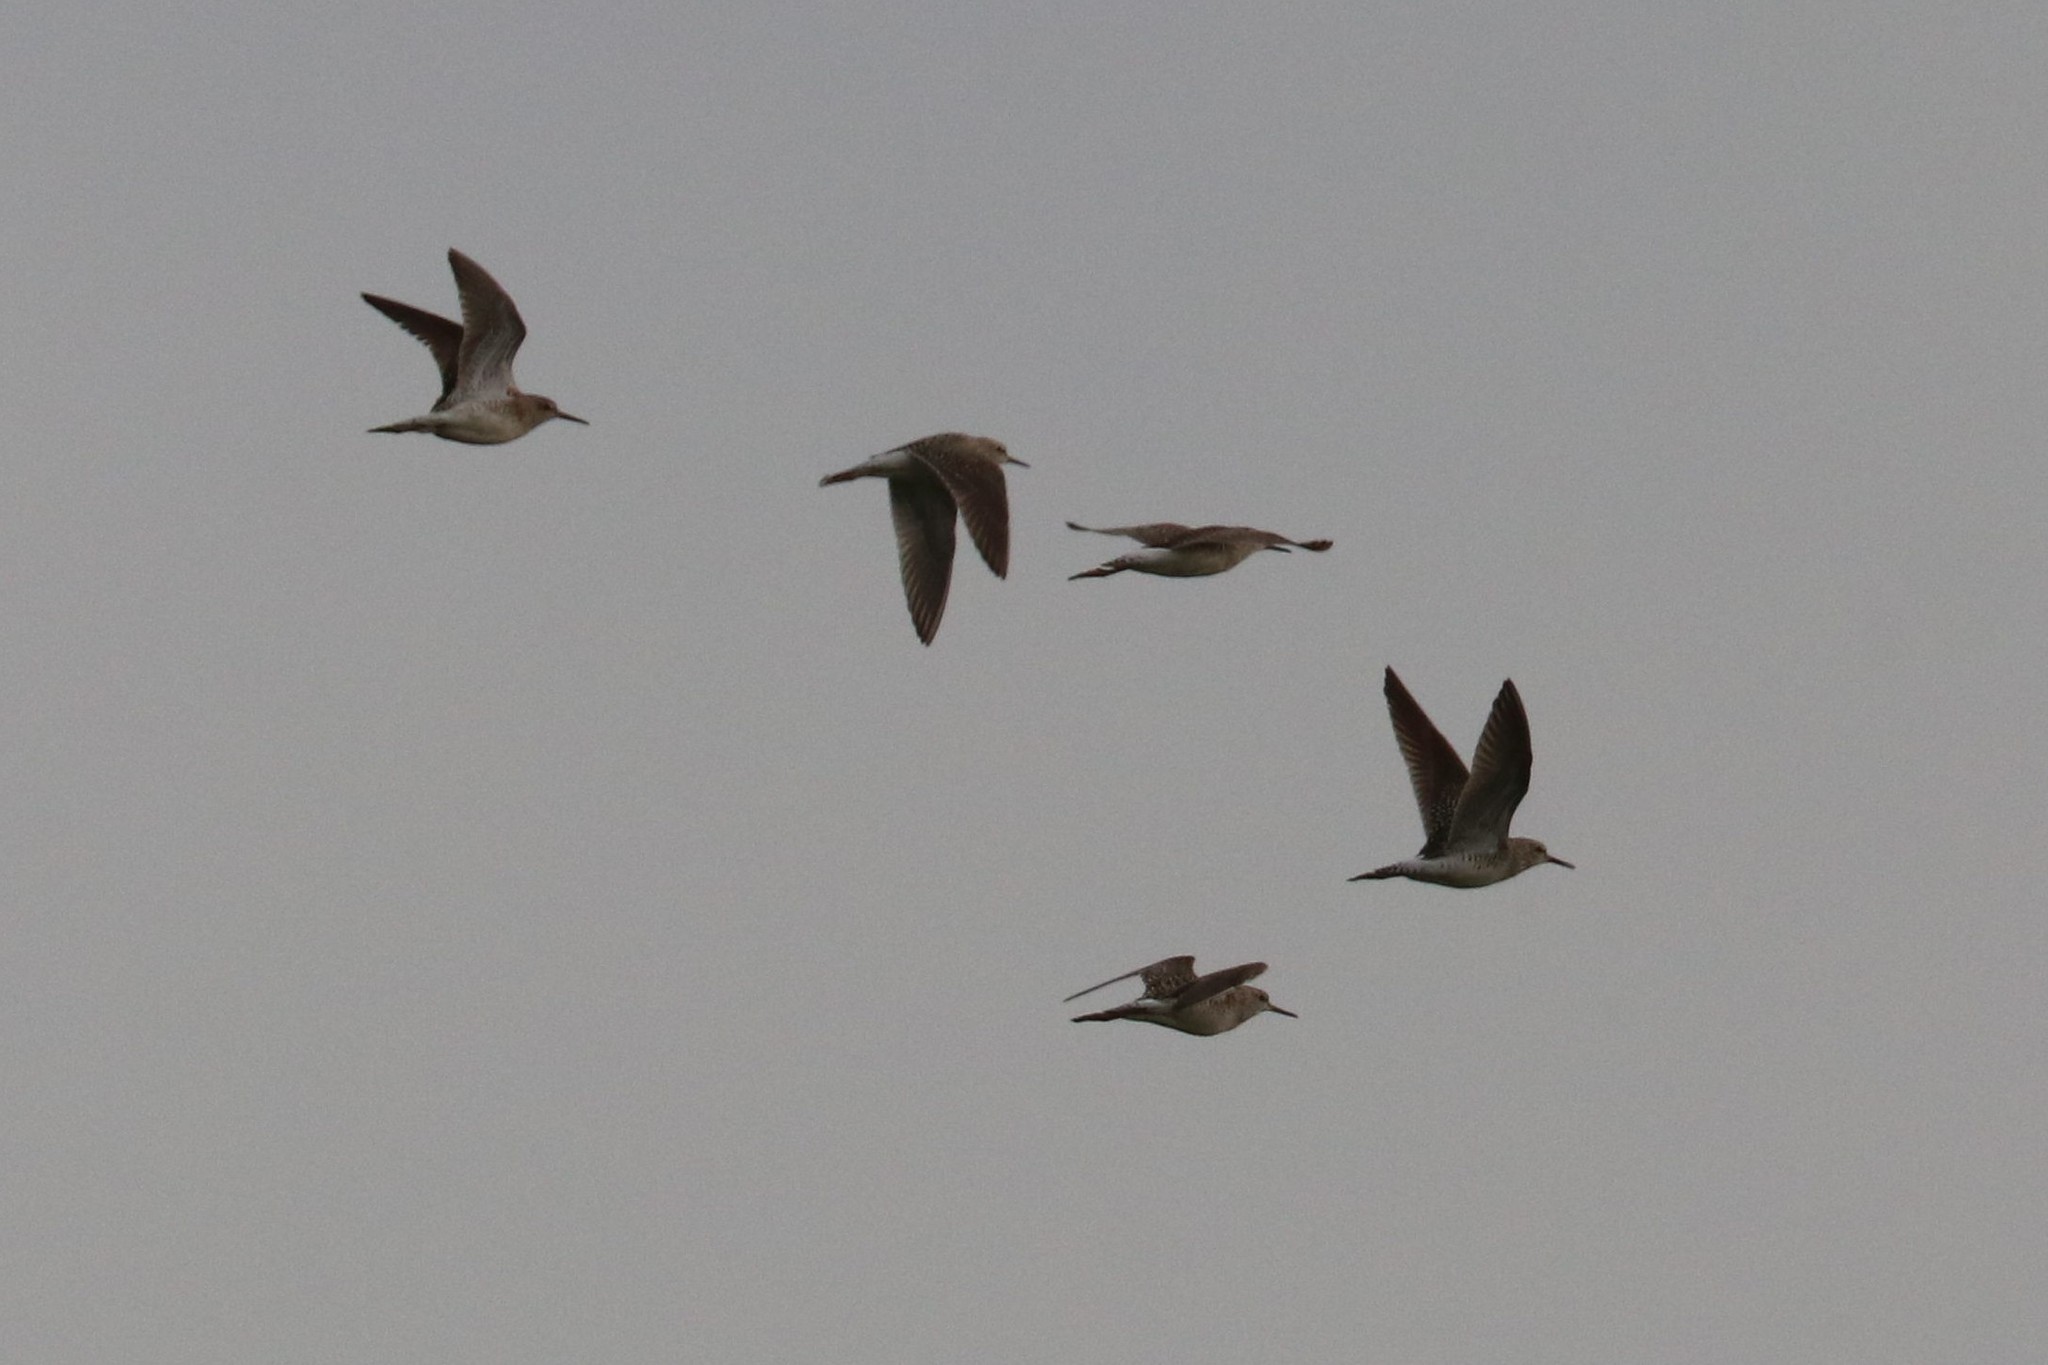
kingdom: Animalia
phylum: Chordata
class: Aves
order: Charadriiformes
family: Scolopacidae
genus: Tringa
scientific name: Tringa glareola
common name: Wood sandpiper
